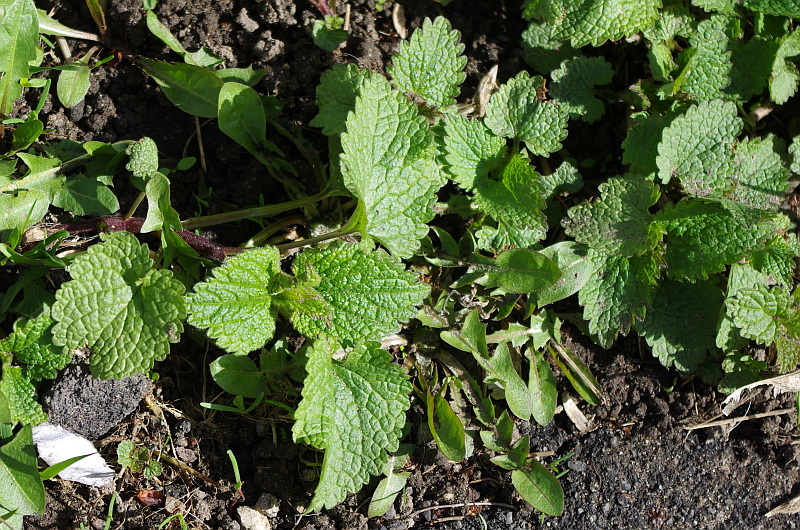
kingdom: Plantae
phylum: Tracheophyta
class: Magnoliopsida
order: Lamiales
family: Lamiaceae
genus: Lamium
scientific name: Lamium album
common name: White dead-nettle
